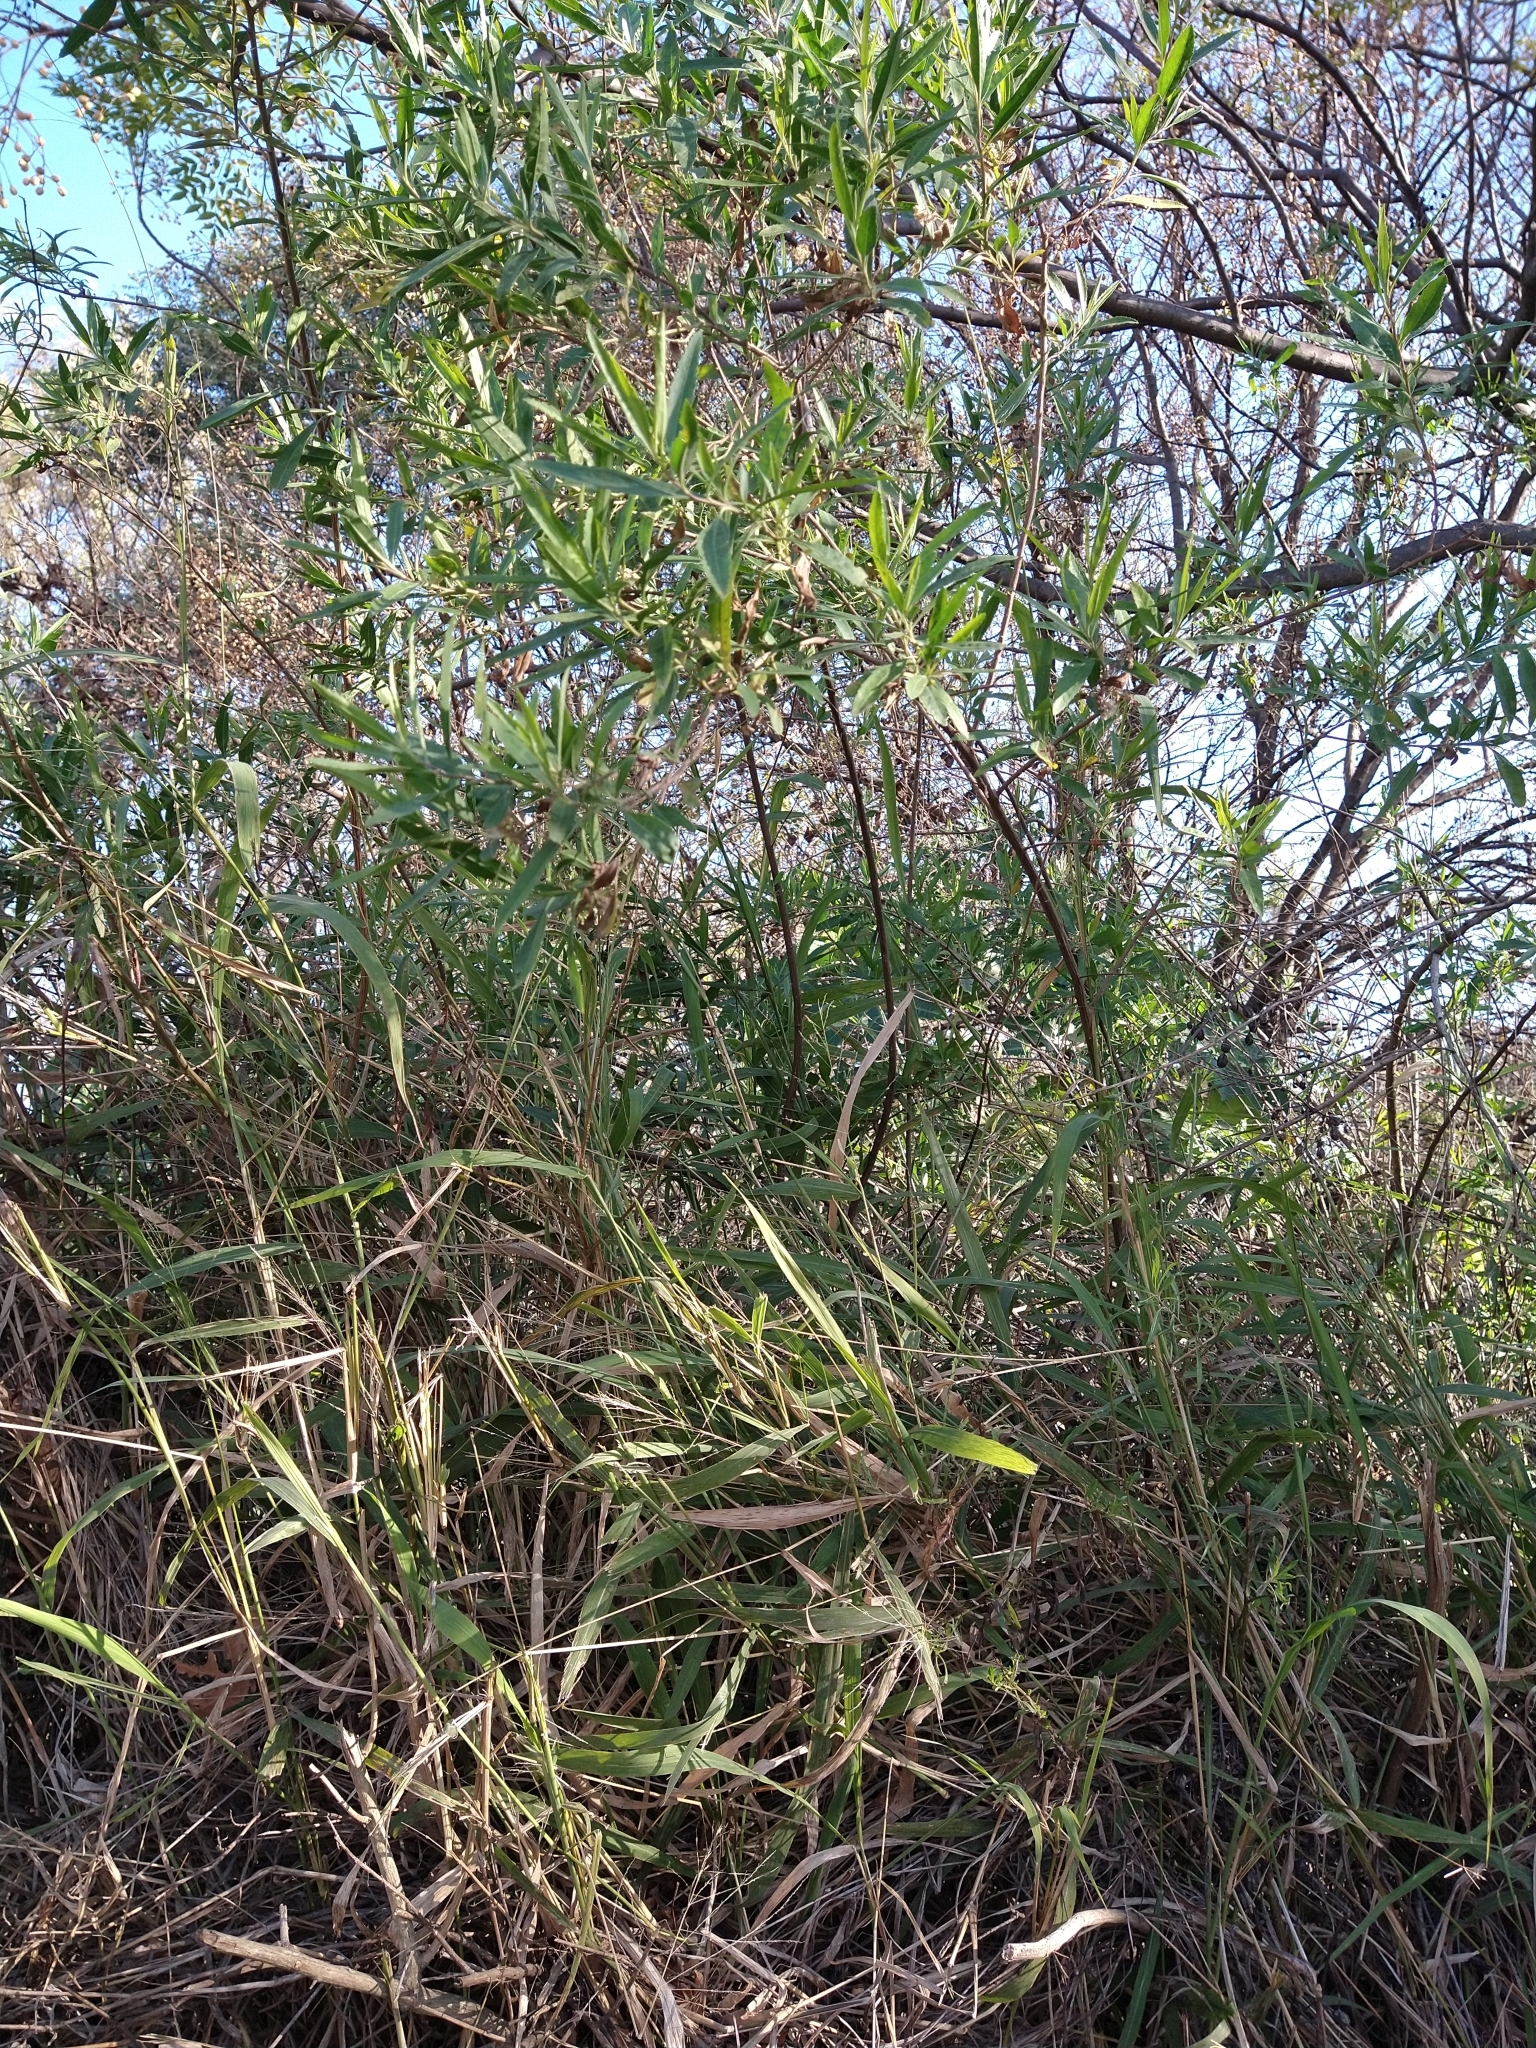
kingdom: Plantae
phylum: Tracheophyta
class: Magnoliopsida
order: Asterales
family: Asteraceae
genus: Baccharis
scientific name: Baccharis salicifolia
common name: Sticky baccharis
